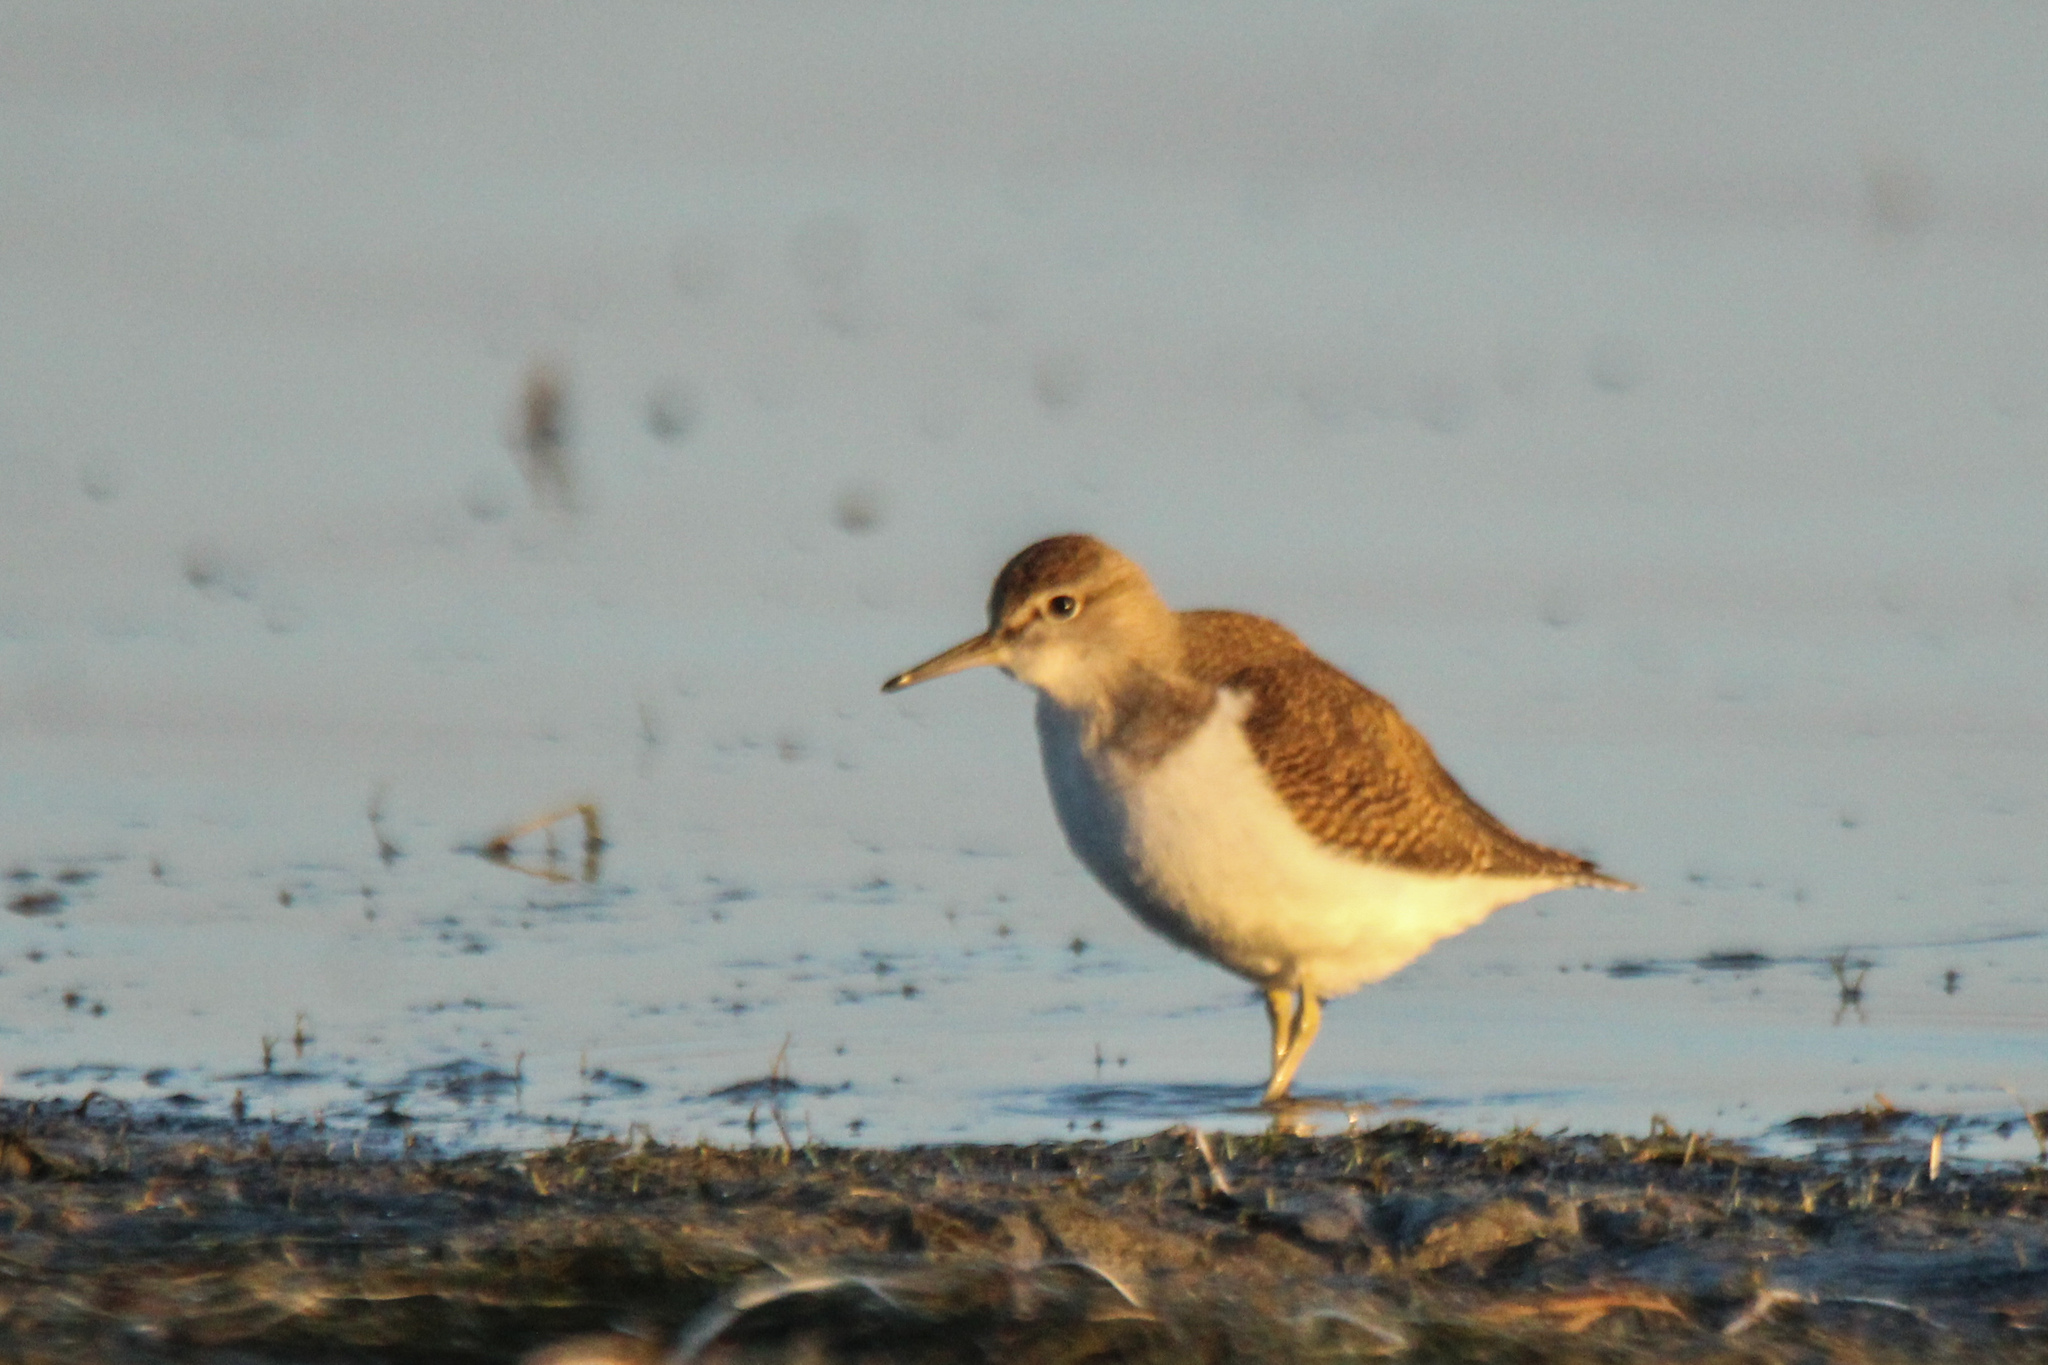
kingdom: Animalia
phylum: Chordata
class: Aves
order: Charadriiformes
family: Scolopacidae
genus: Actitis
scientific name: Actitis hypoleucos
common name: Common sandpiper
